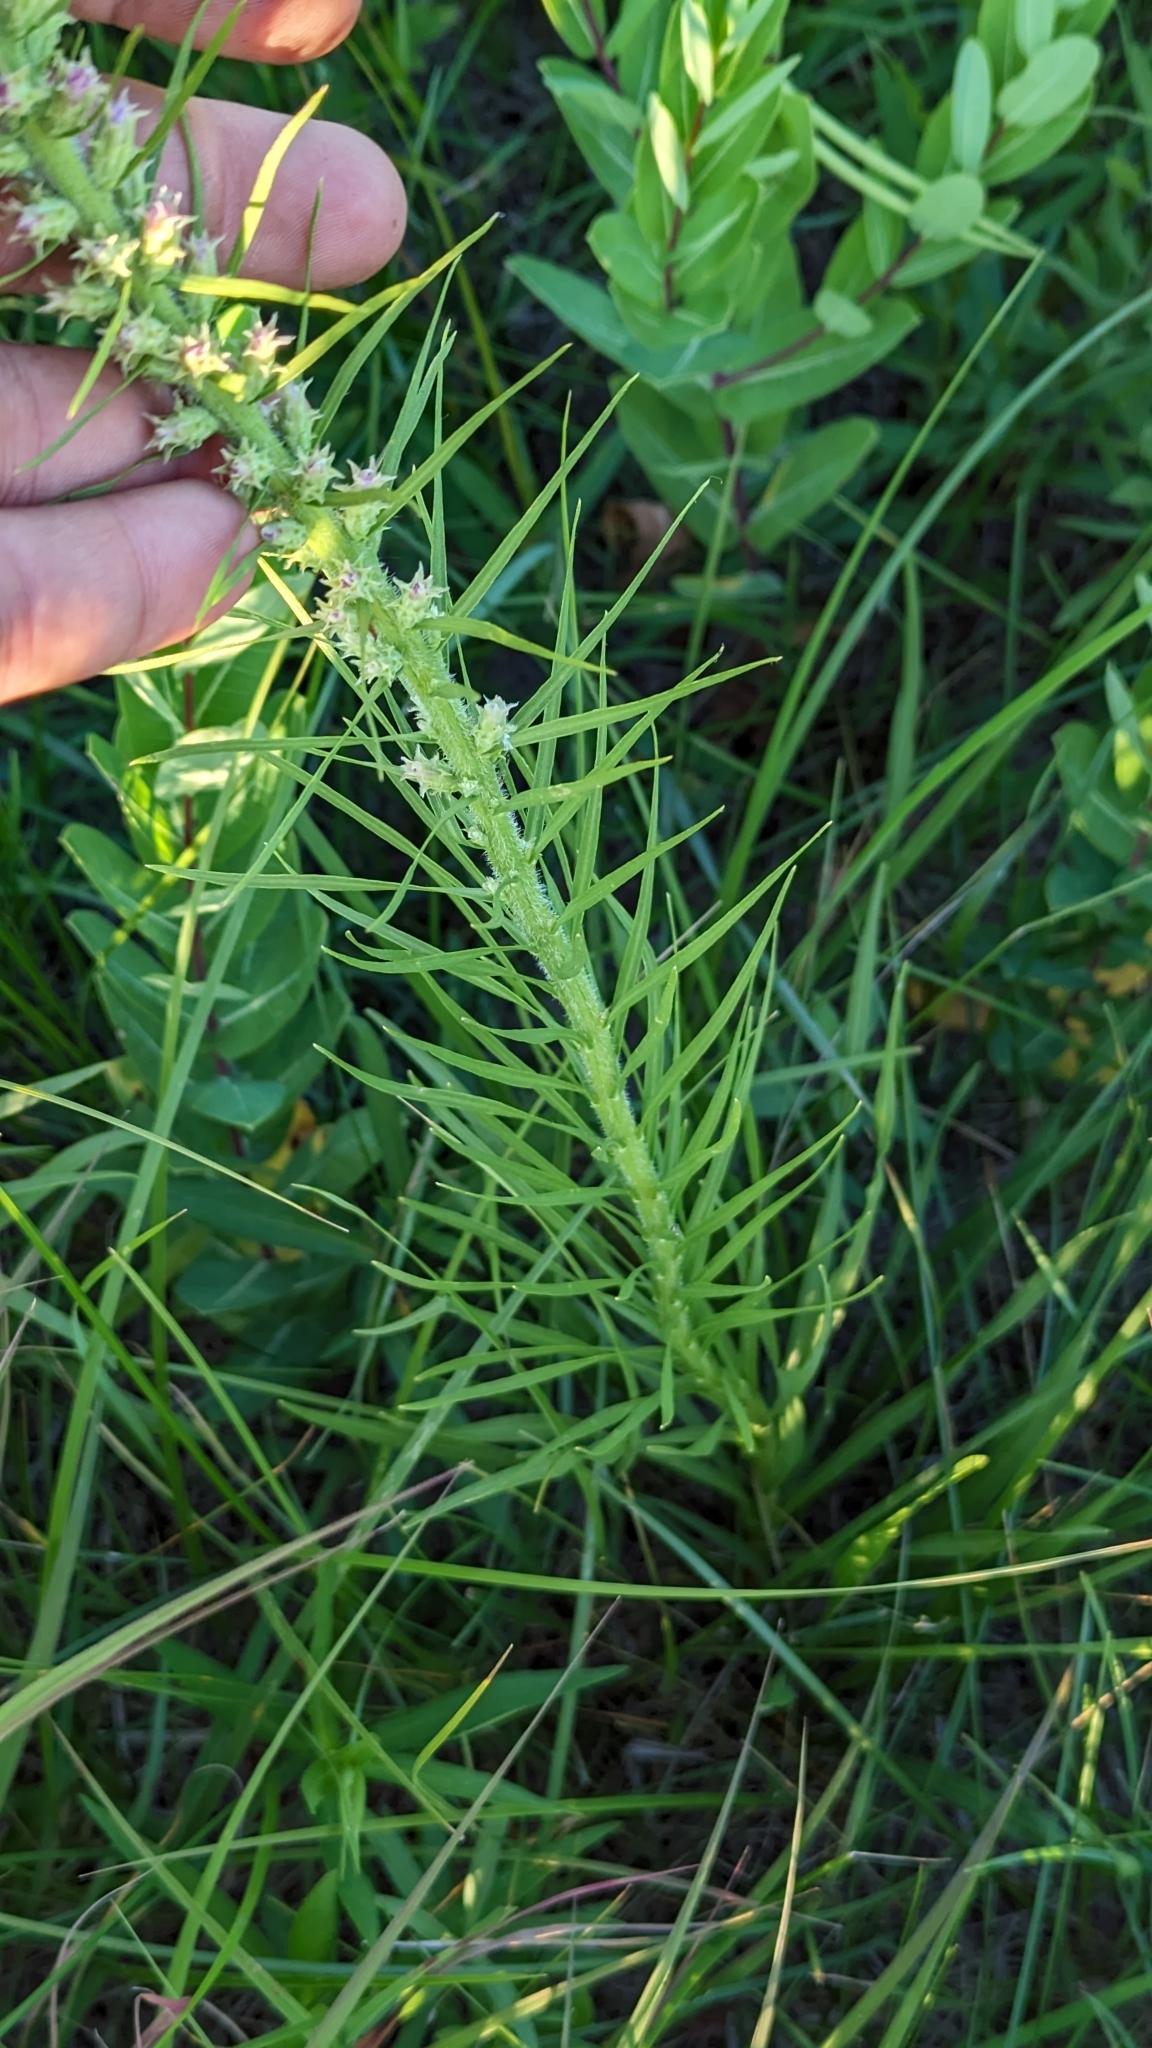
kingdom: Plantae
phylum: Tracheophyta
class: Magnoliopsida
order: Asterales
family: Asteraceae
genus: Liatris
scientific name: Liatris pycnostachya
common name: Cattail gayfeather
